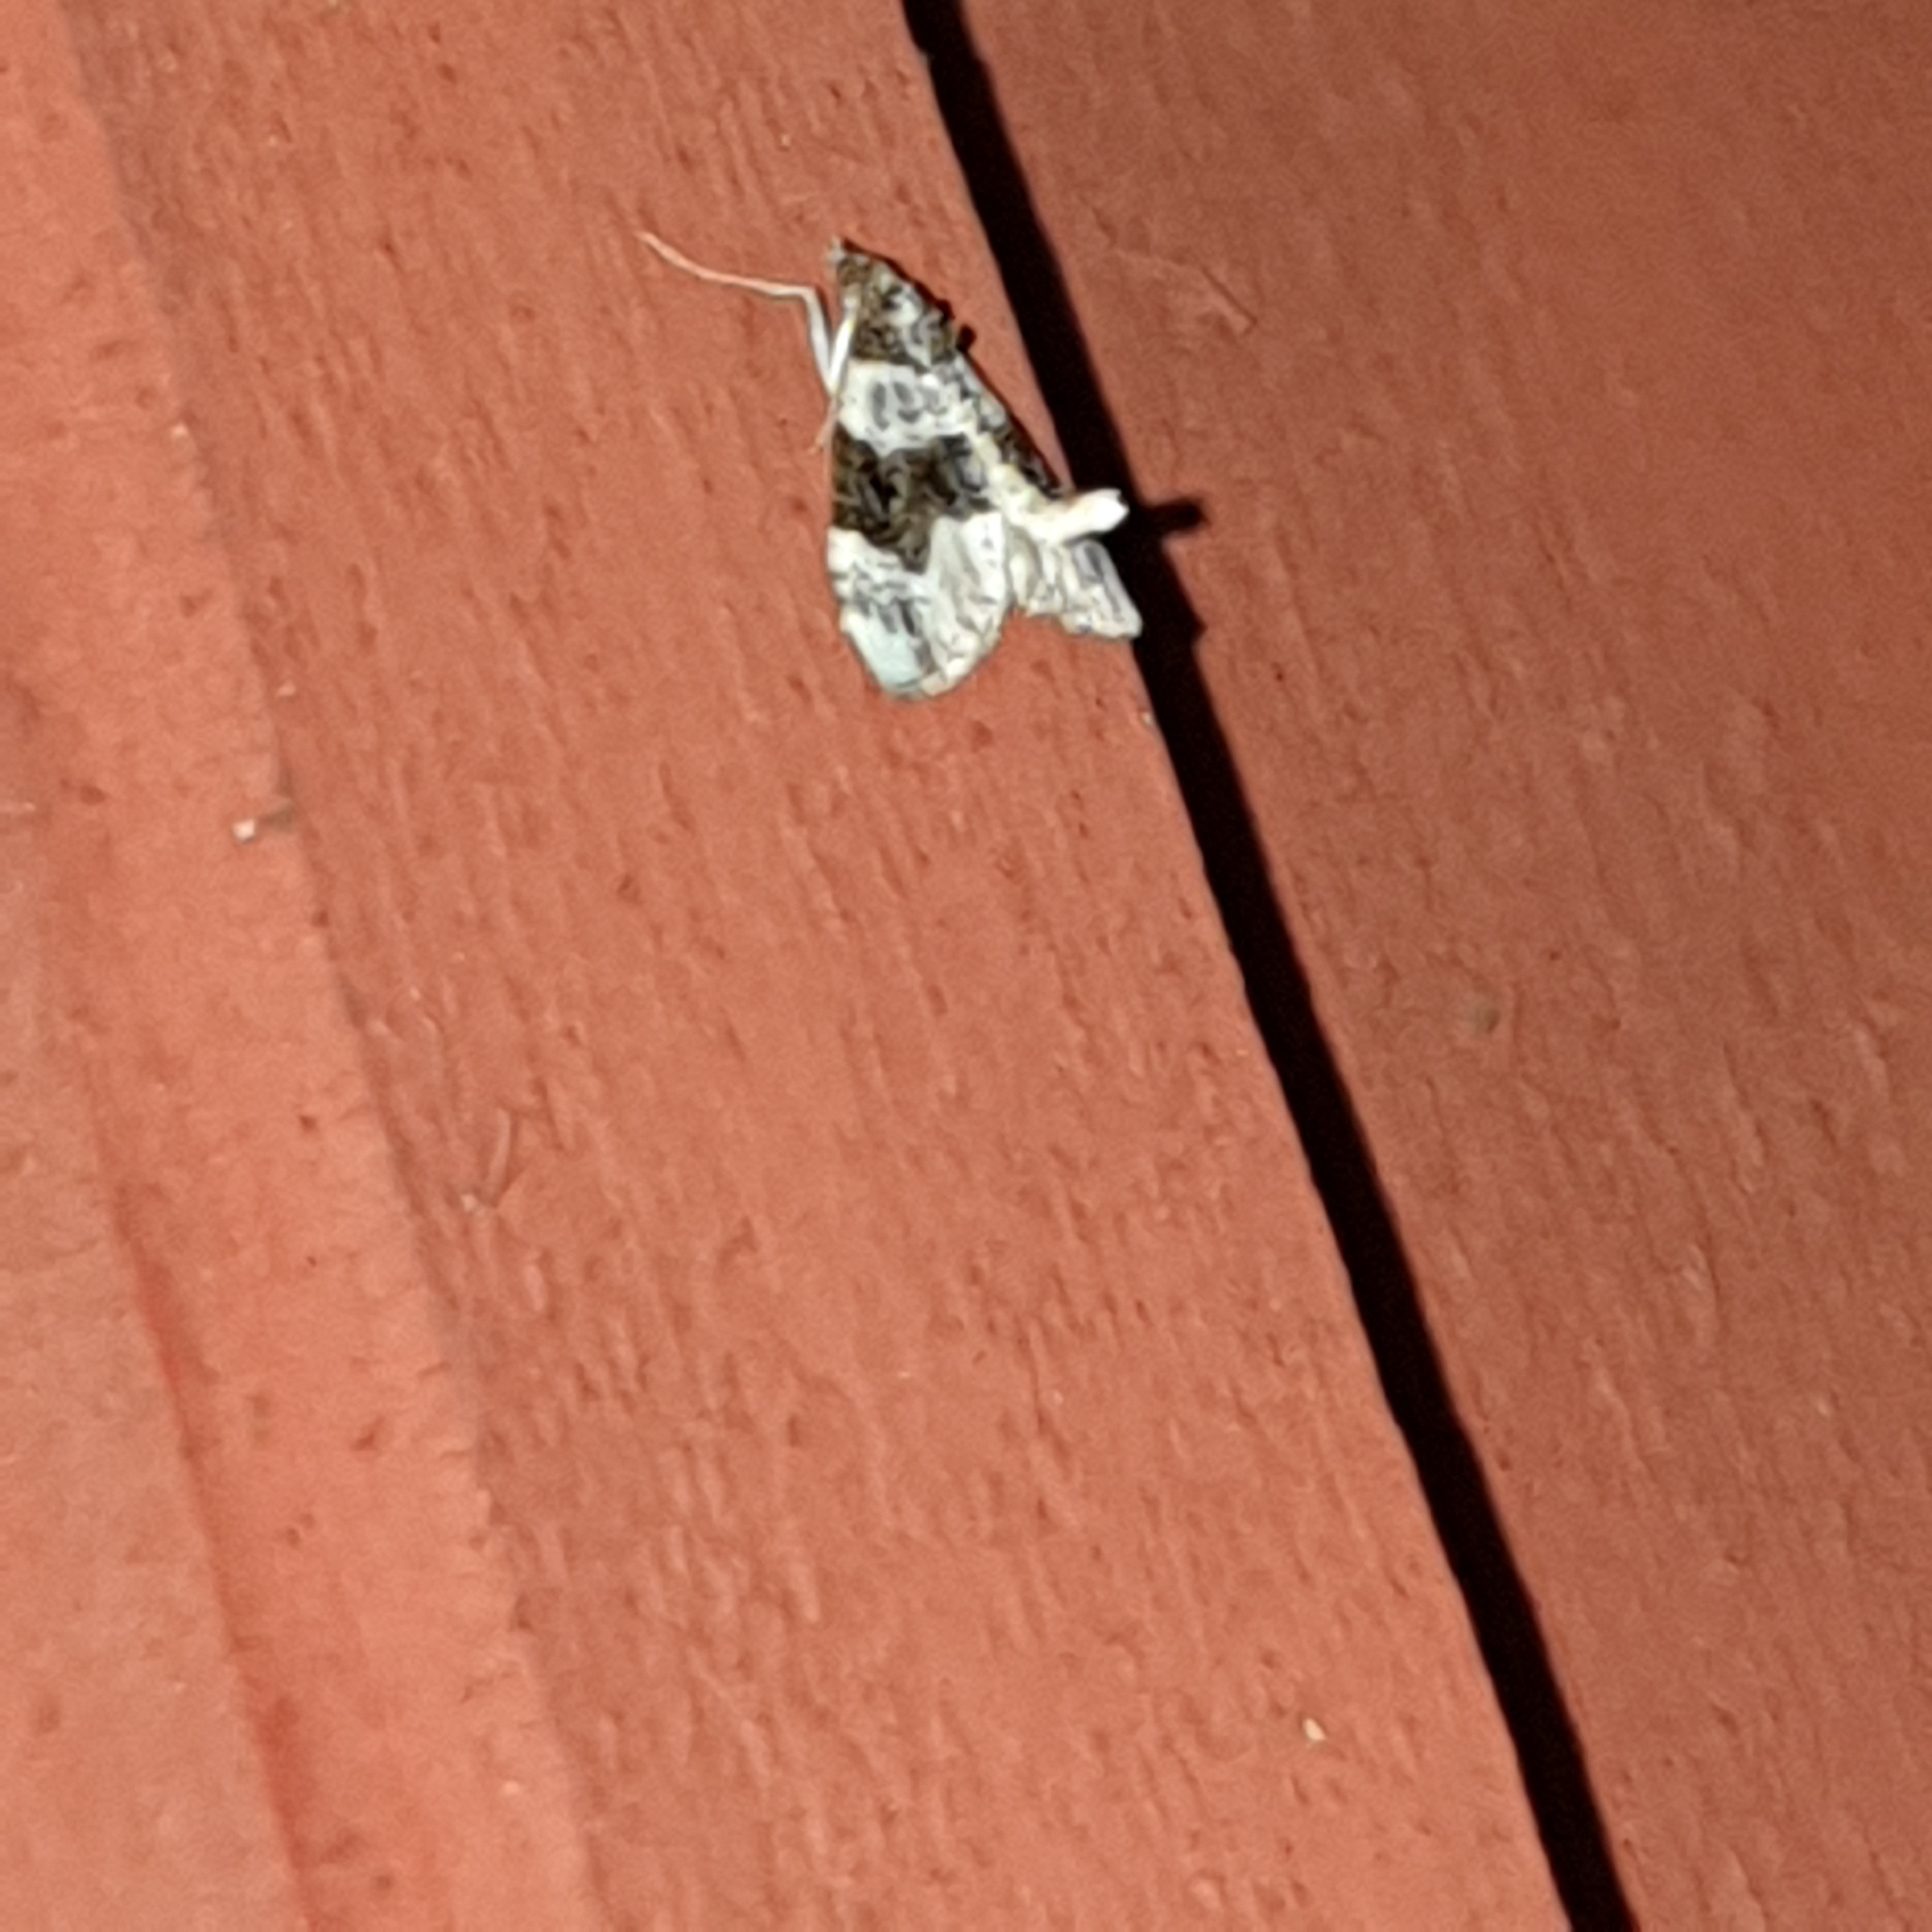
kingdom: Animalia
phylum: Arthropoda
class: Insecta
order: Lepidoptera
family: Geometridae
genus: Cosmorhoe
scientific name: Cosmorhoe ocellata
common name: Purple bar
